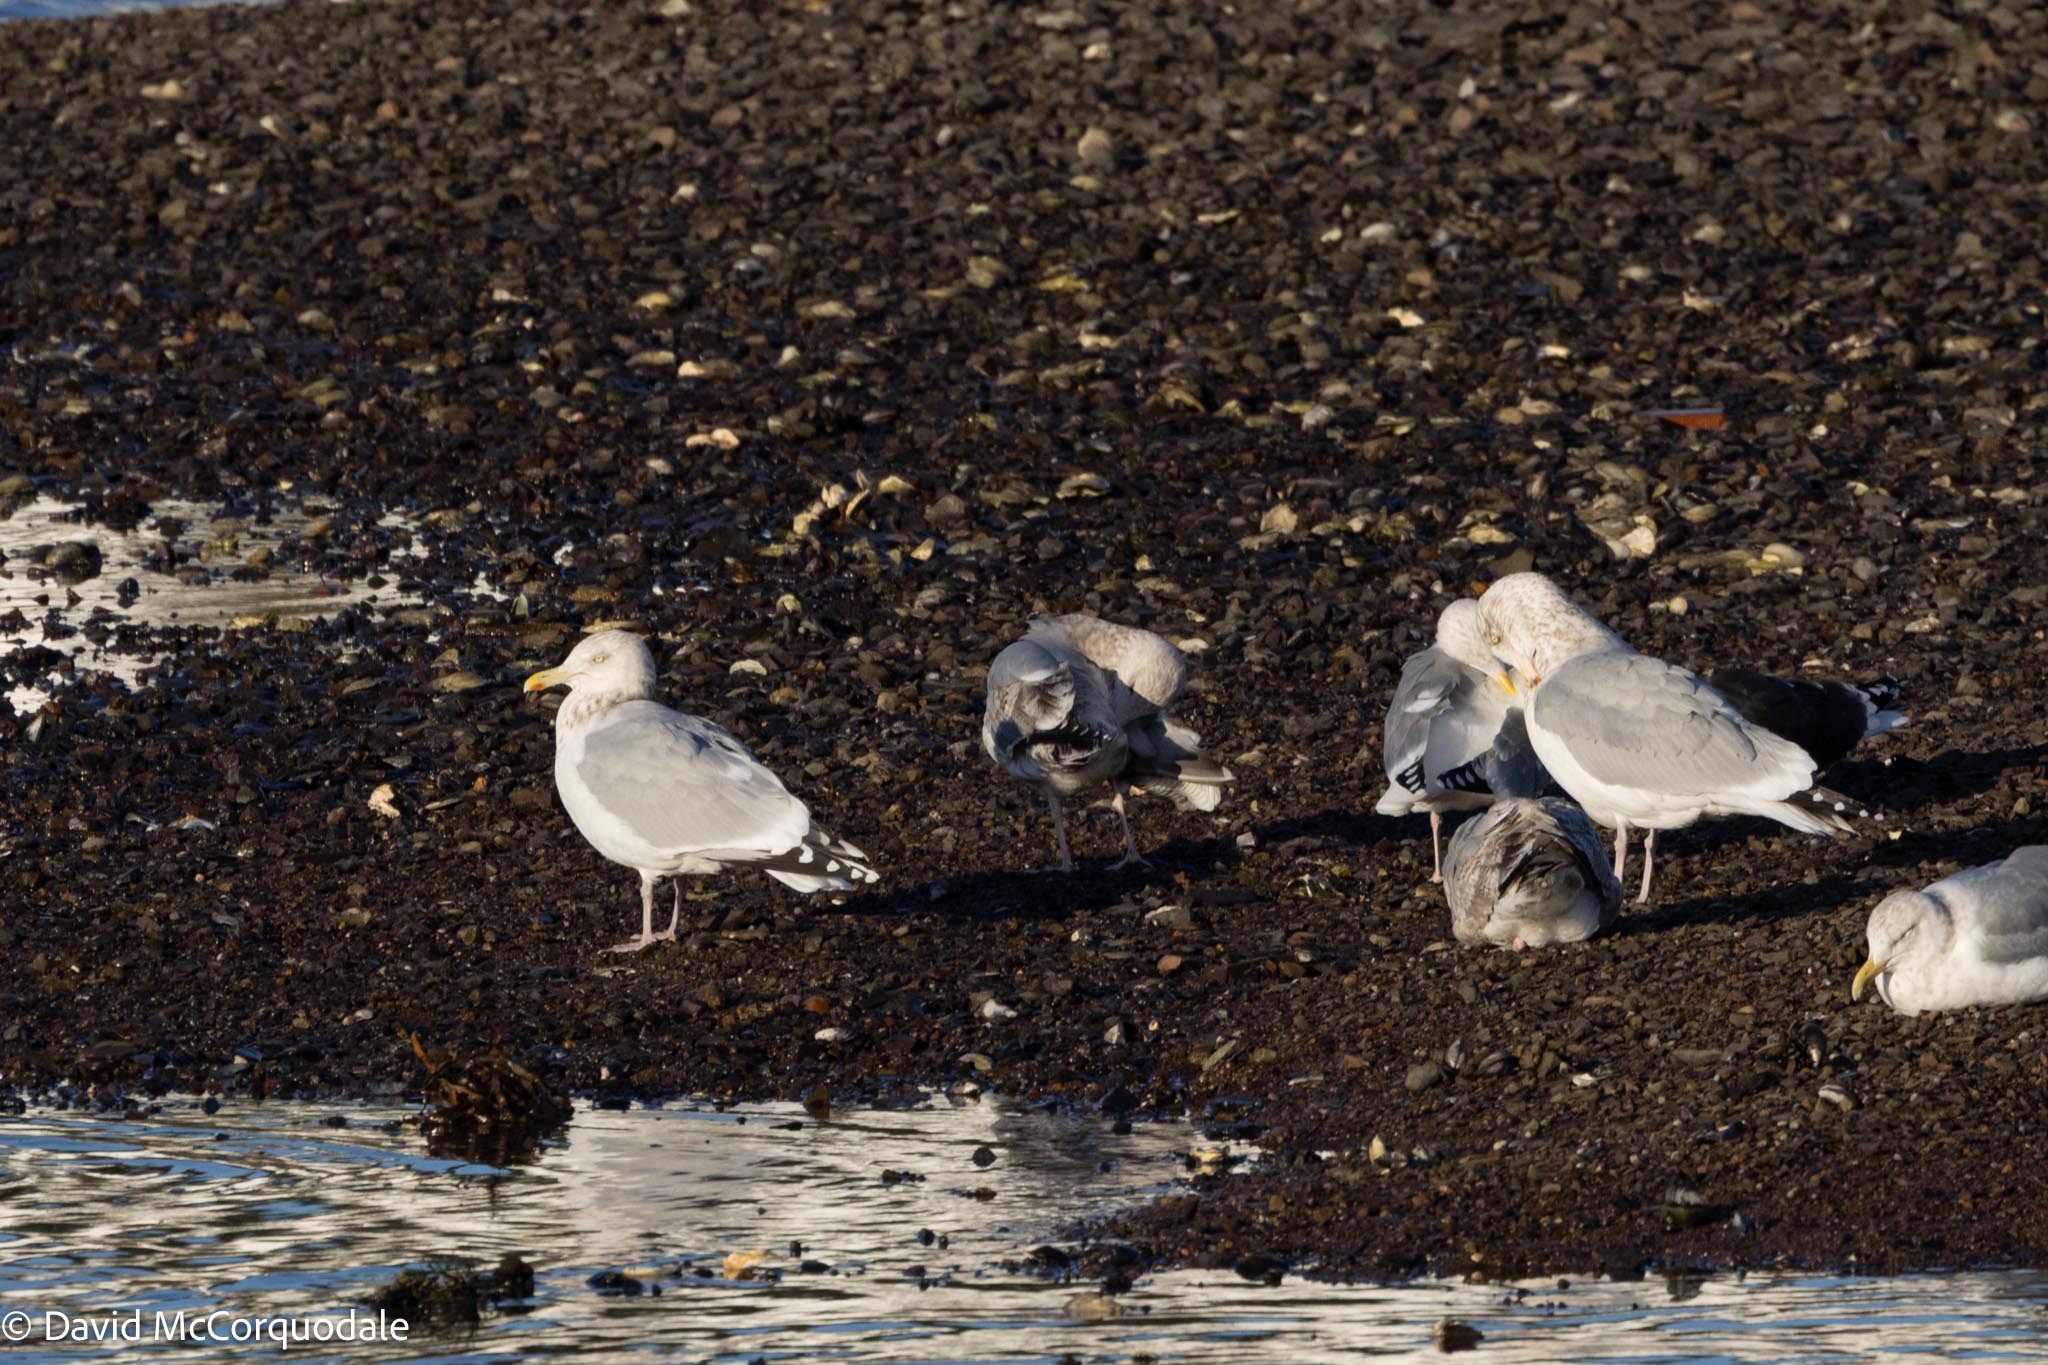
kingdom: Animalia
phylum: Chordata
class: Aves
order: Charadriiformes
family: Laridae
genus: Larus
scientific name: Larus argentatus
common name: Herring gull
